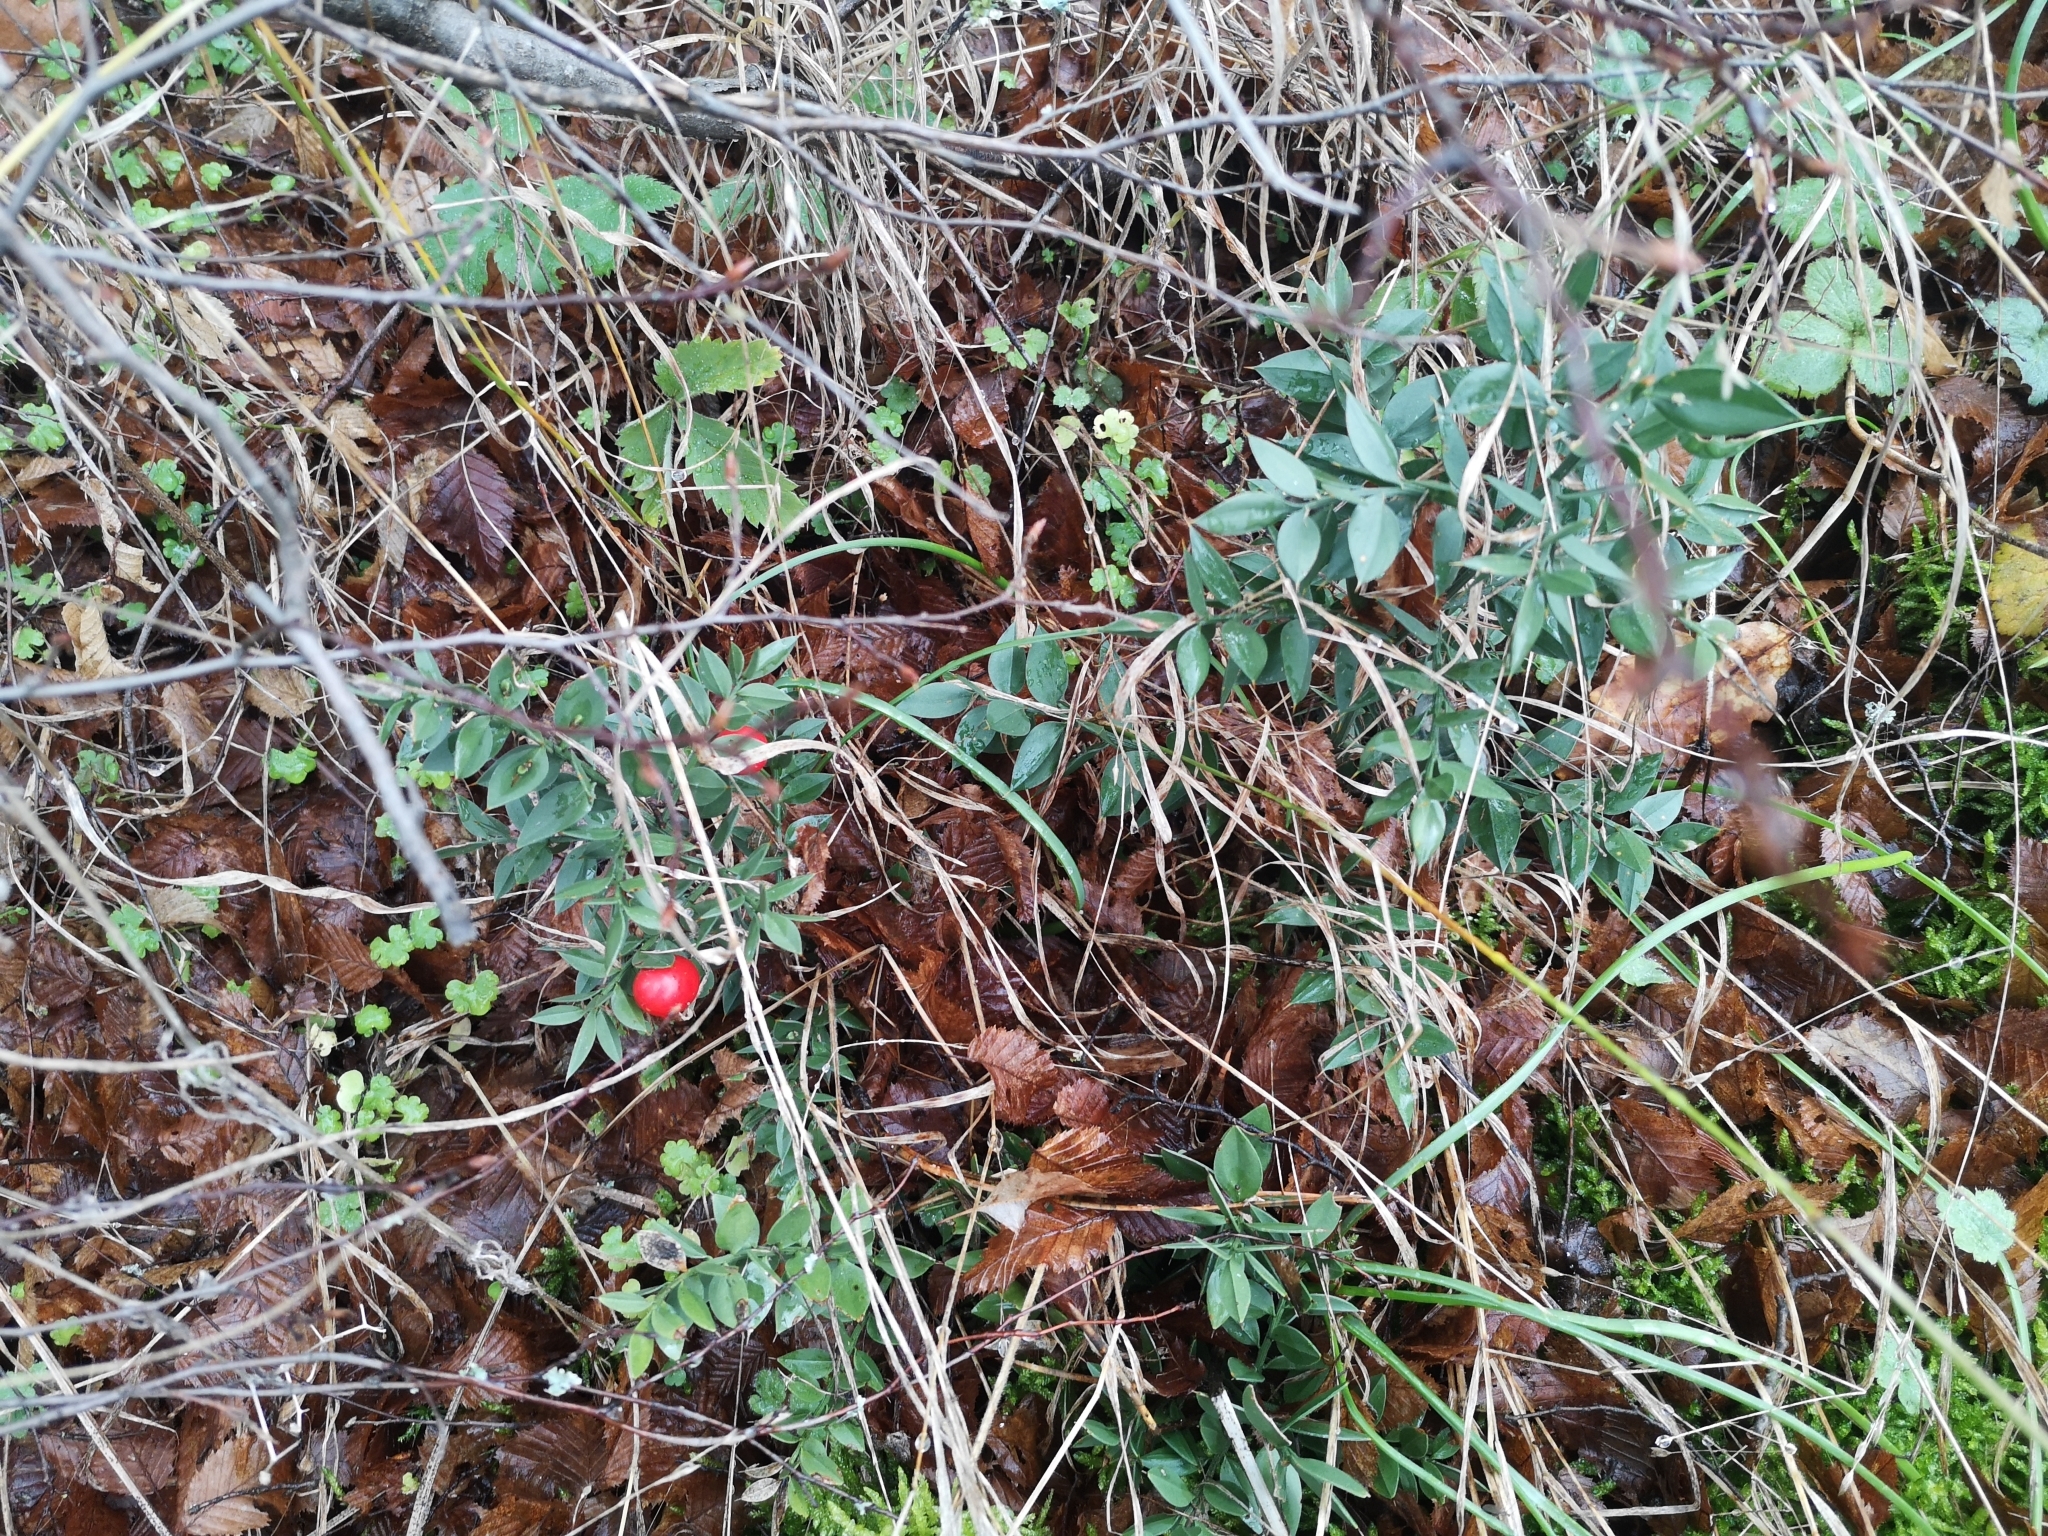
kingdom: Plantae
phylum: Tracheophyta
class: Liliopsida
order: Asparagales
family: Asparagaceae
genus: Ruscus
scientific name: Ruscus aculeatus
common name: Butcher's-broom
